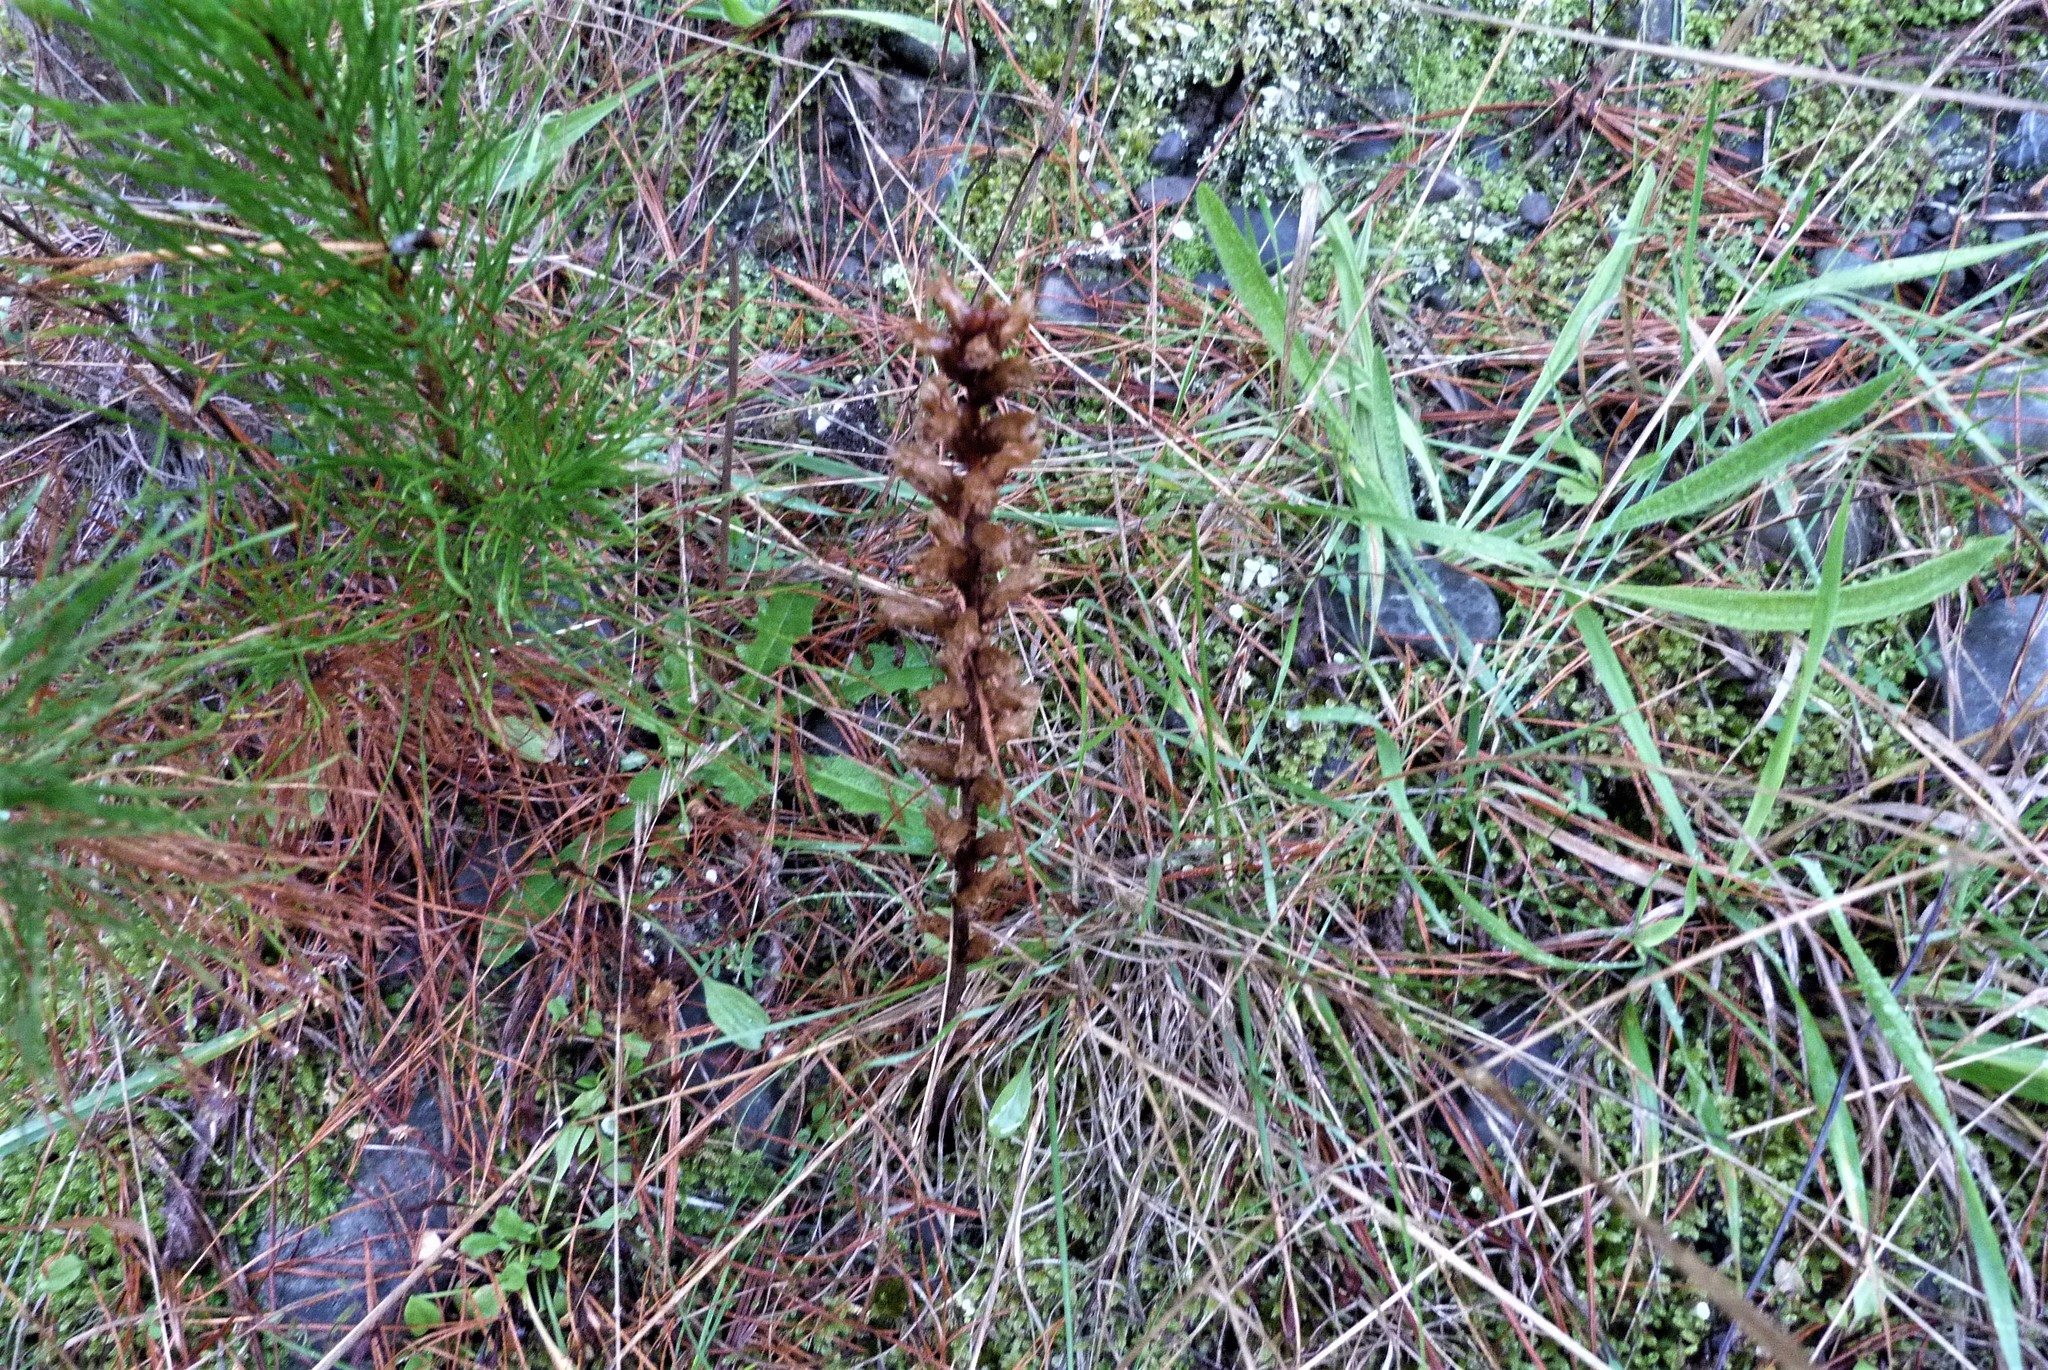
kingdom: Plantae
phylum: Tracheophyta
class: Magnoliopsida
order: Lamiales
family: Orobanchaceae
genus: Orobanche
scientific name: Orobanche minor
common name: Common broomrape
